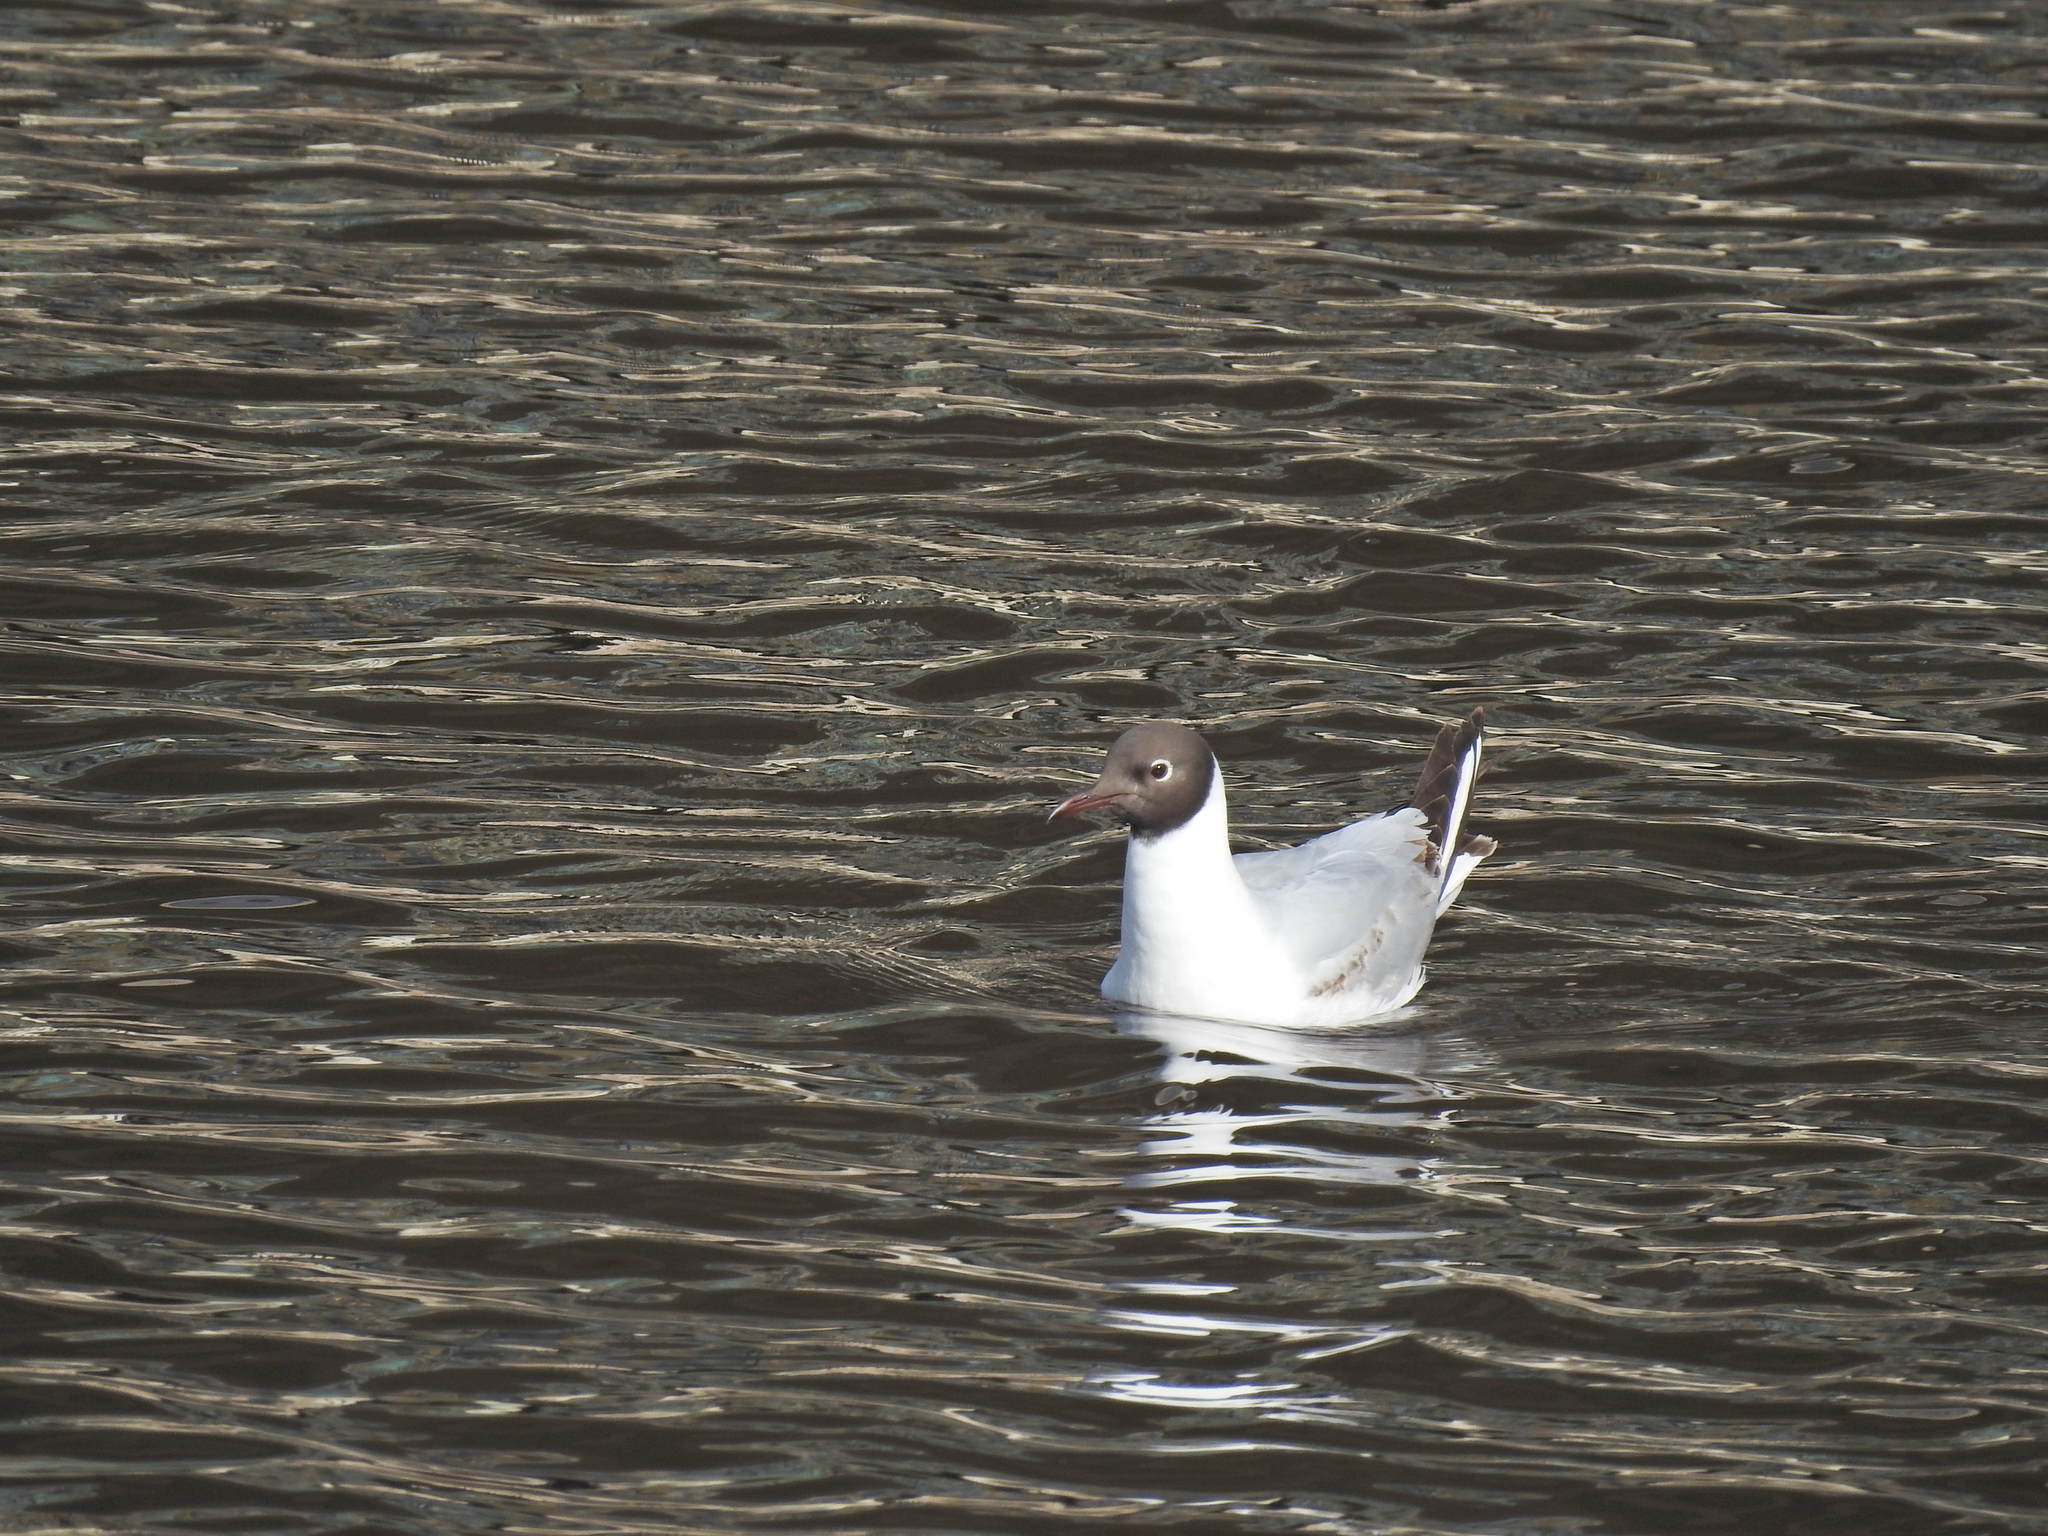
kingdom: Animalia
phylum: Chordata
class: Aves
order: Charadriiformes
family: Laridae
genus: Chroicocephalus
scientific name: Chroicocephalus ridibundus
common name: Black-headed gull
